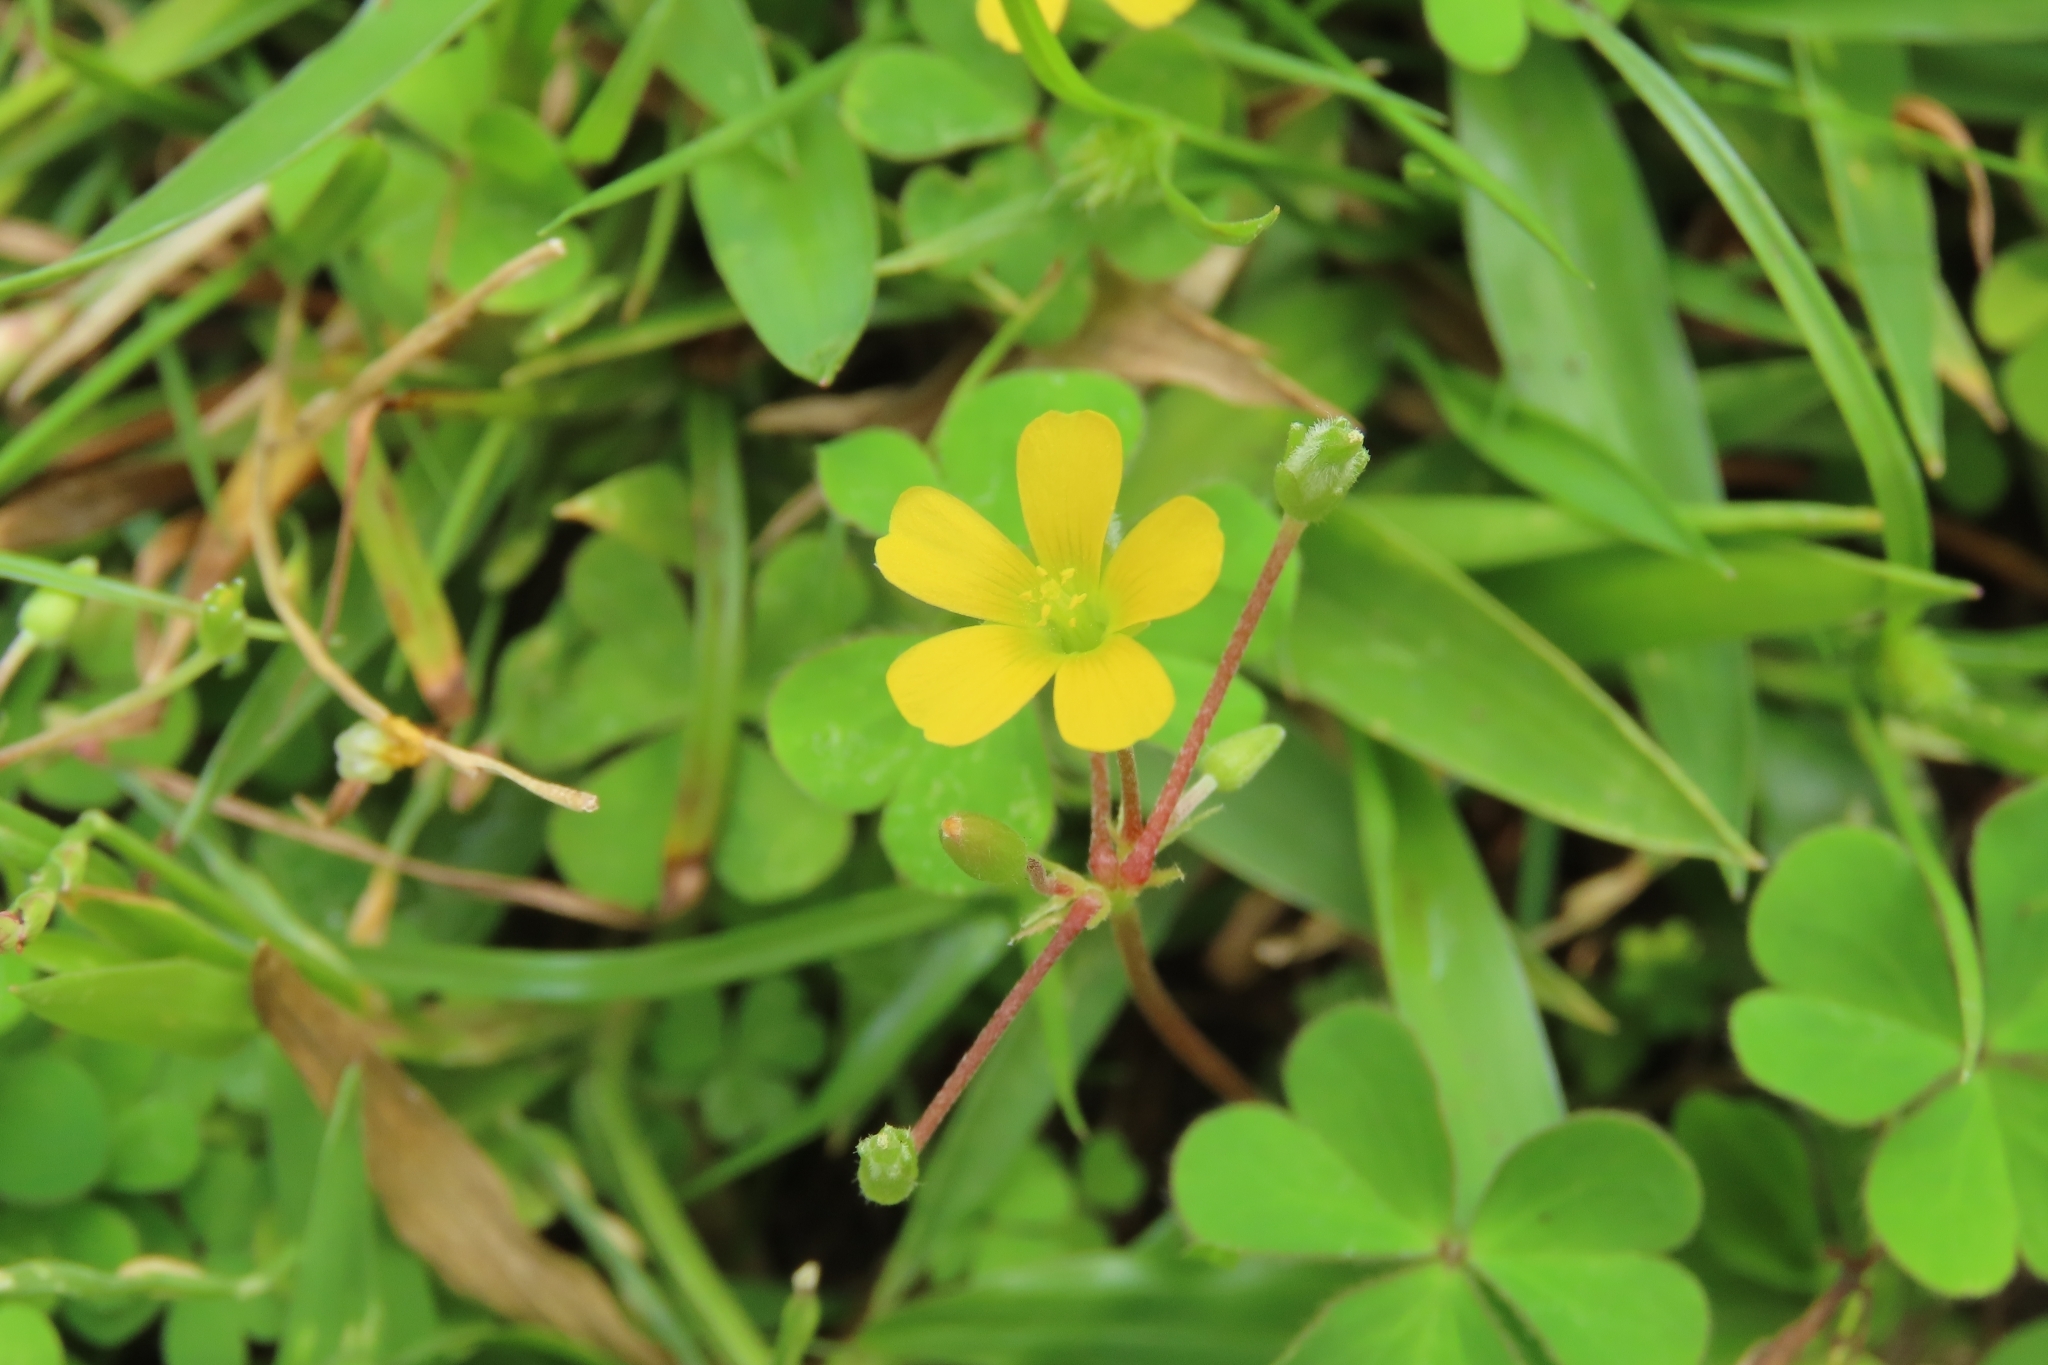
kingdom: Plantae
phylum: Tracheophyta
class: Magnoliopsida
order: Oxalidales
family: Oxalidaceae
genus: Oxalis
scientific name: Oxalis corniculata
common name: Procumbent yellow-sorrel
